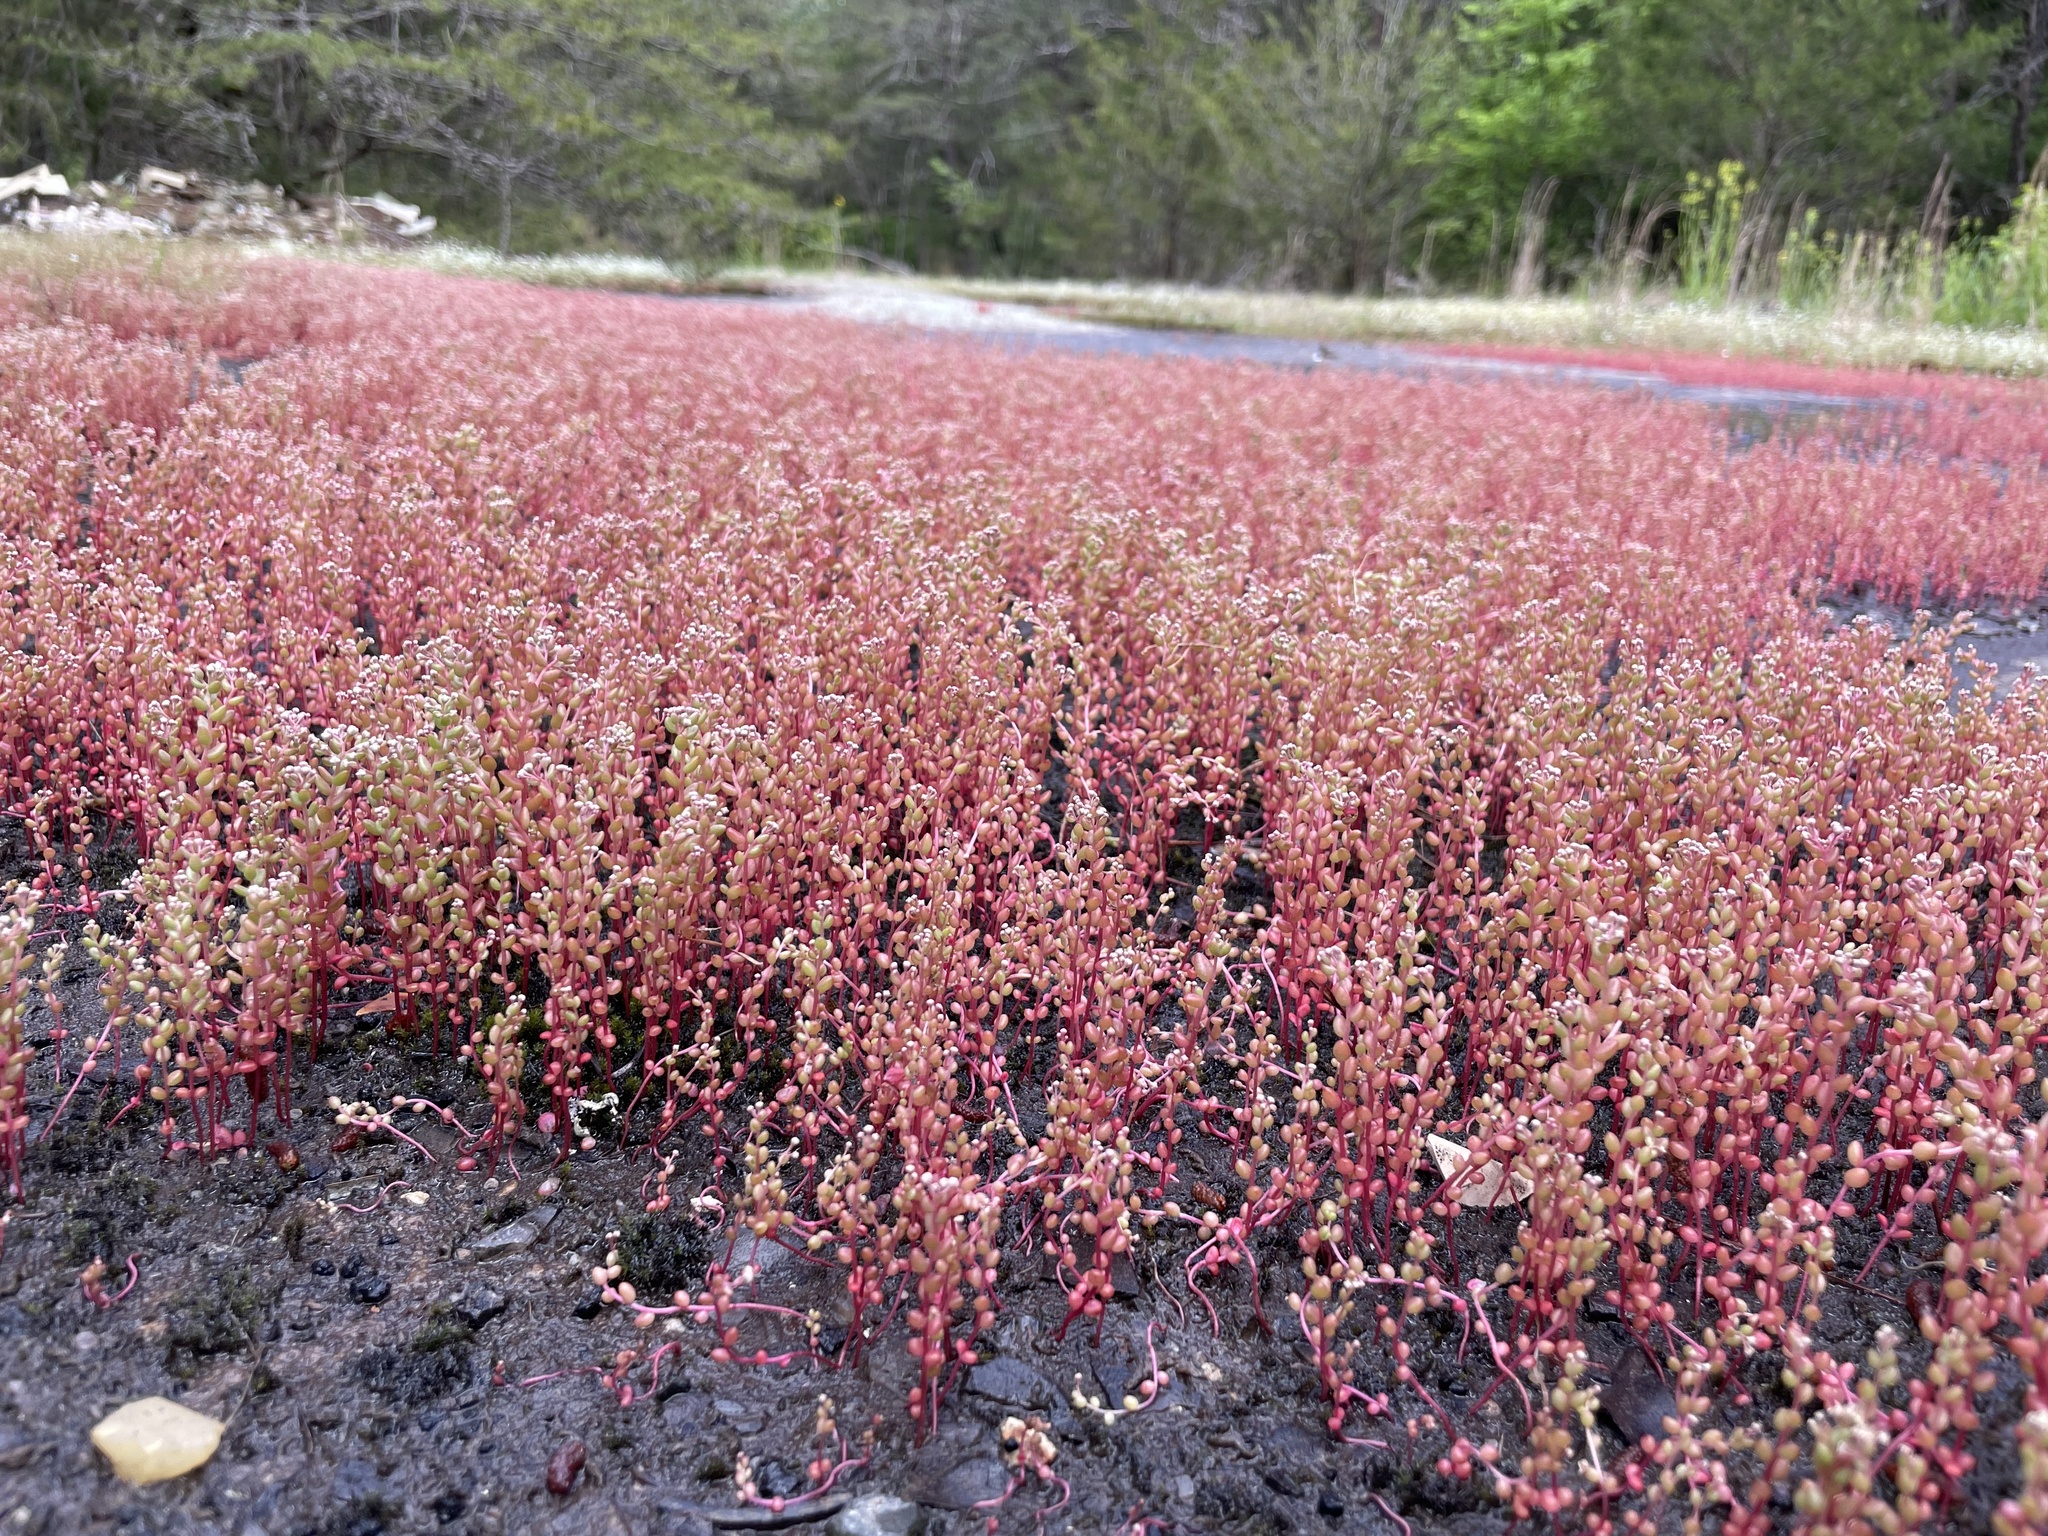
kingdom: Plantae
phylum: Tracheophyta
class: Magnoliopsida
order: Saxifragales
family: Crassulaceae
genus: Sedum
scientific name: Sedum smallii
